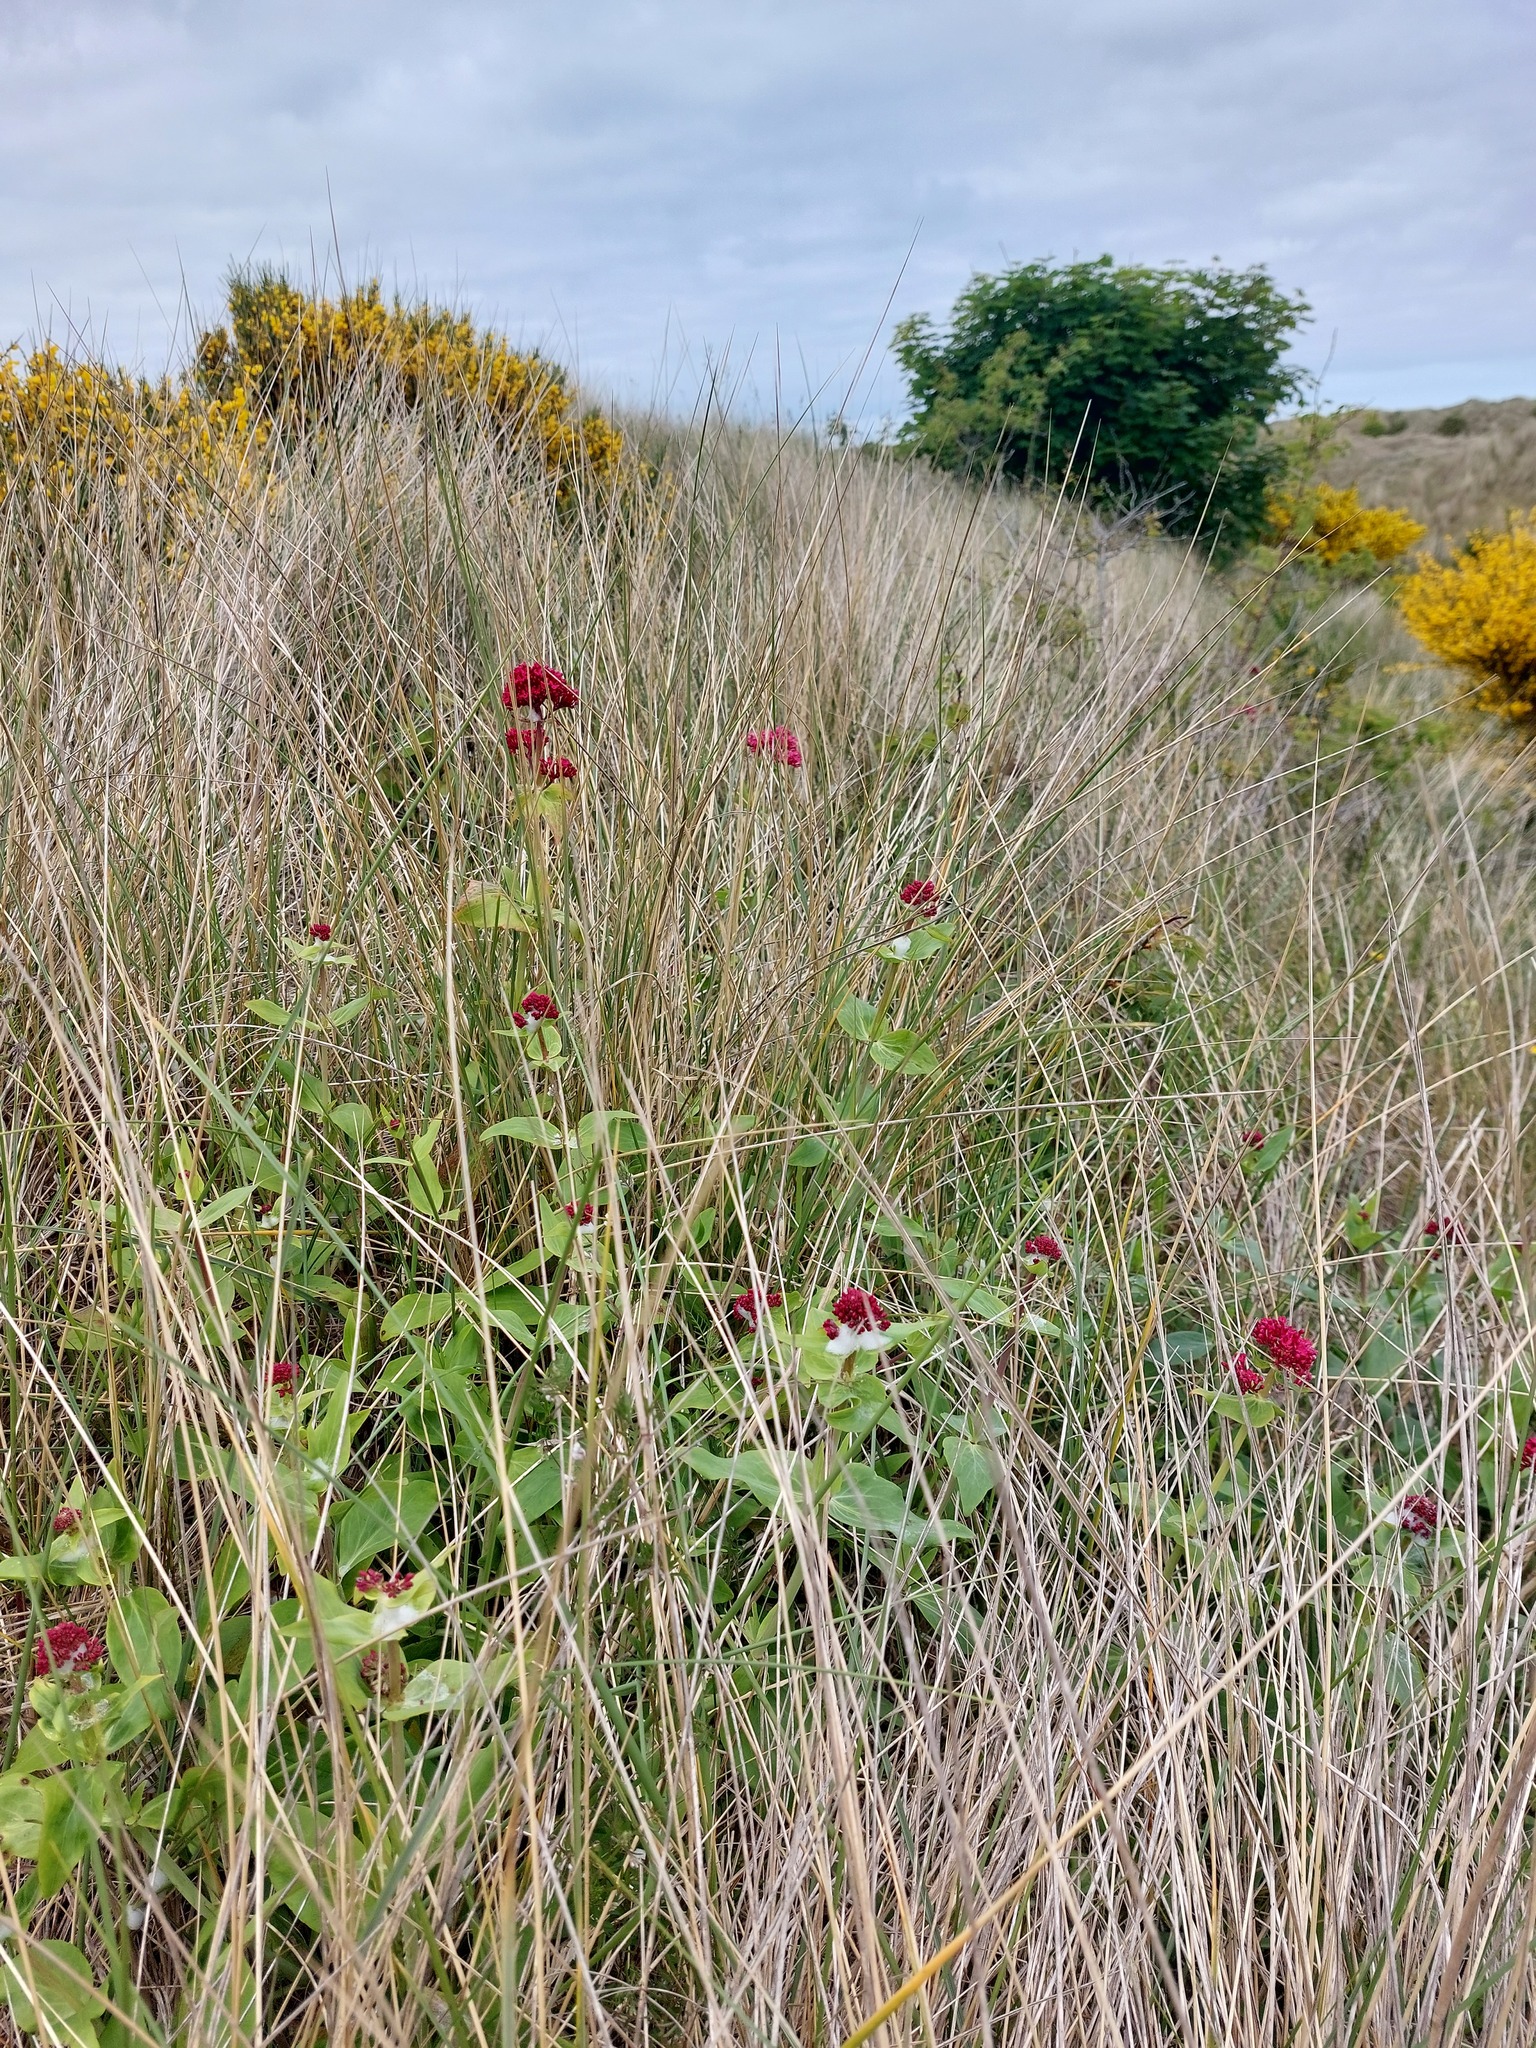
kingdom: Plantae
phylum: Tracheophyta
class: Magnoliopsida
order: Dipsacales
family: Caprifoliaceae
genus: Centranthus
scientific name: Centranthus ruber
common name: Red valerian
